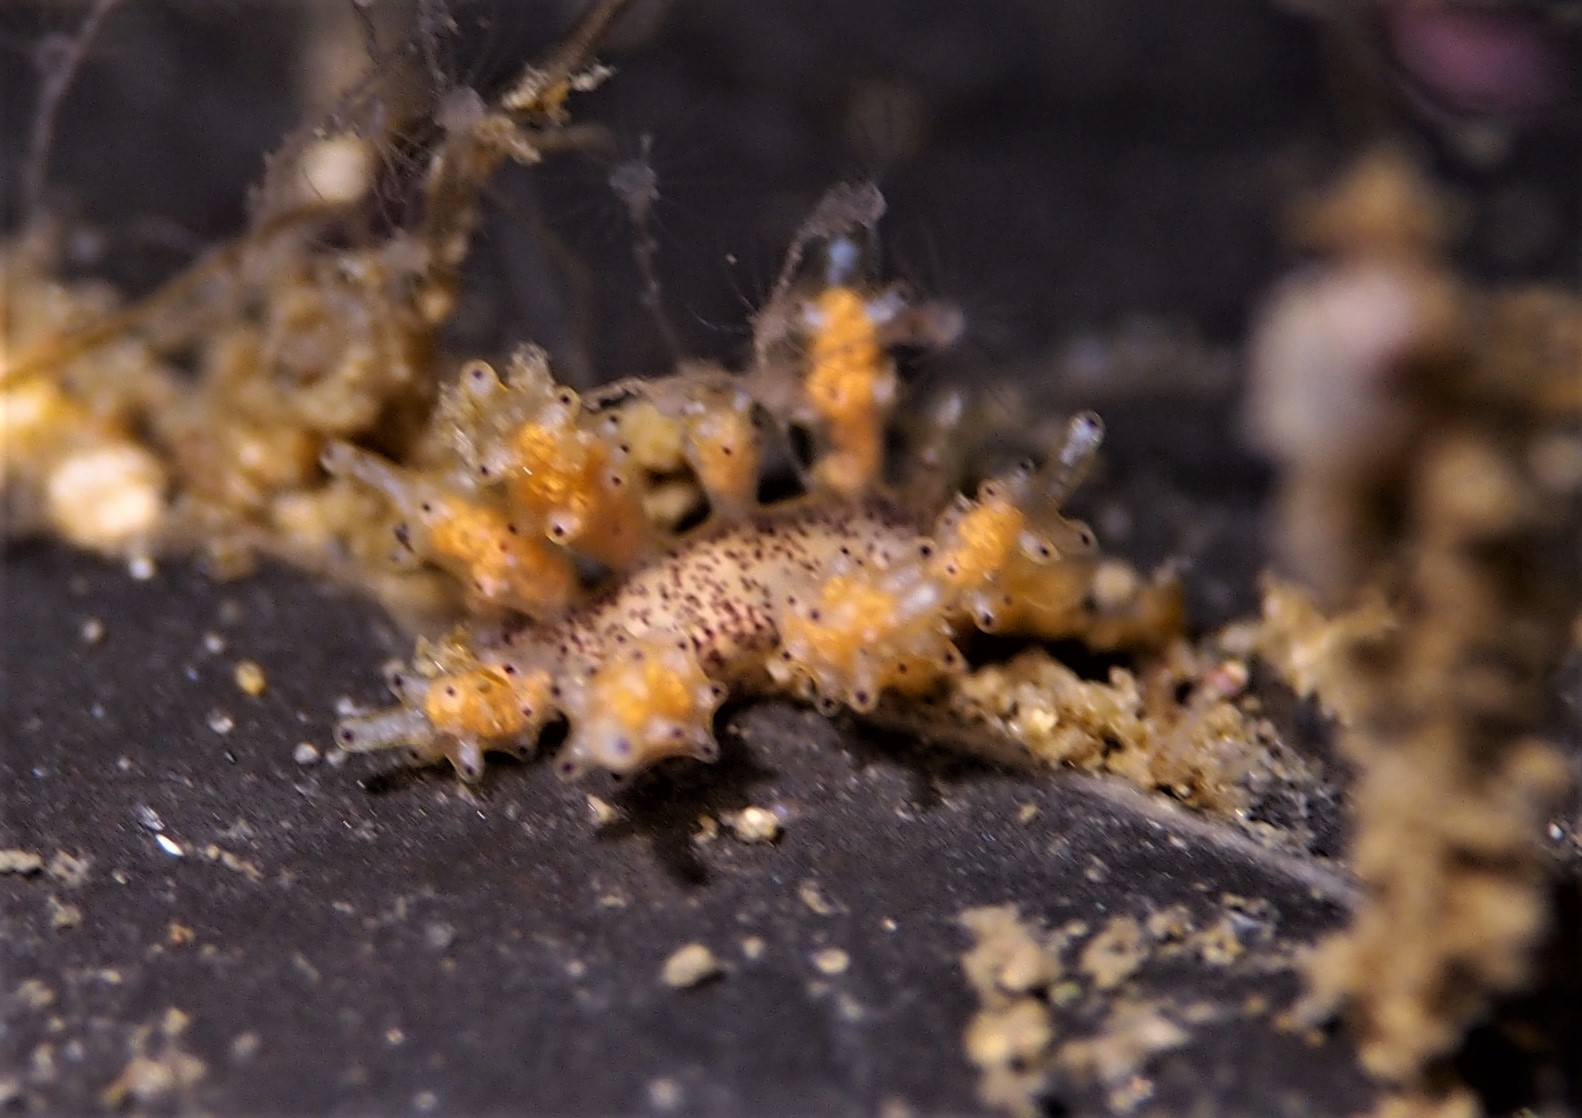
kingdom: Animalia
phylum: Mollusca
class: Gastropoda
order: Nudibranchia
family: Dotidae
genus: Doto
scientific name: Doto maculata
